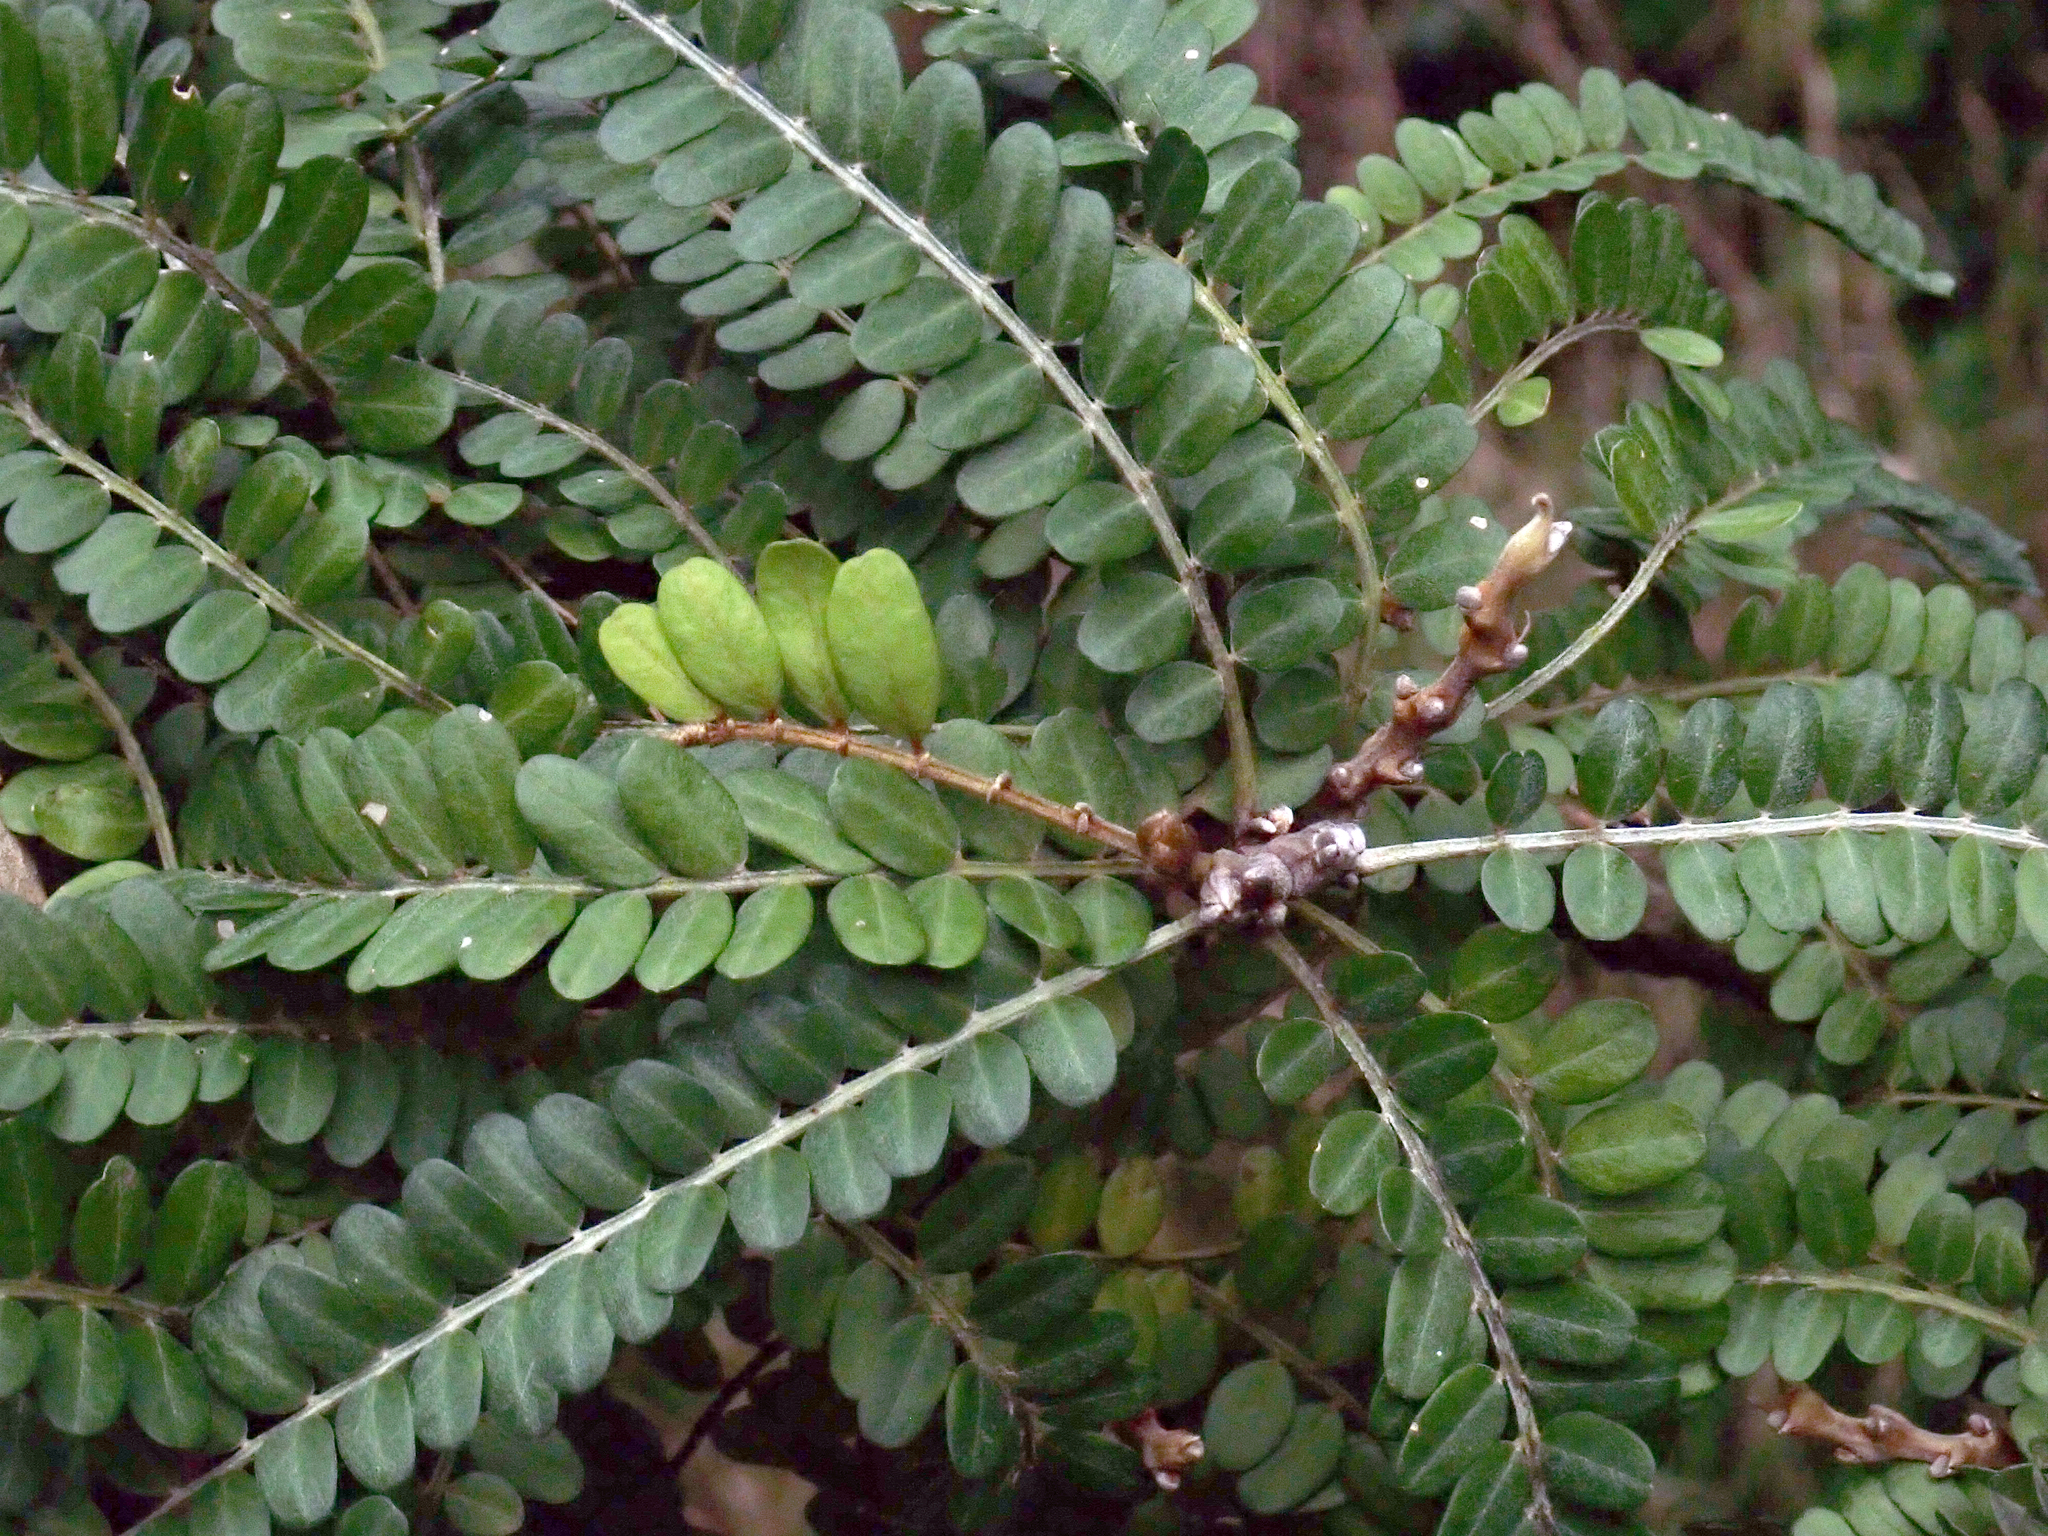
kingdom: Plantae
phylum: Tracheophyta
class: Magnoliopsida
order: Fabales
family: Fabaceae
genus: Sophora
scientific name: Sophora chathamica
